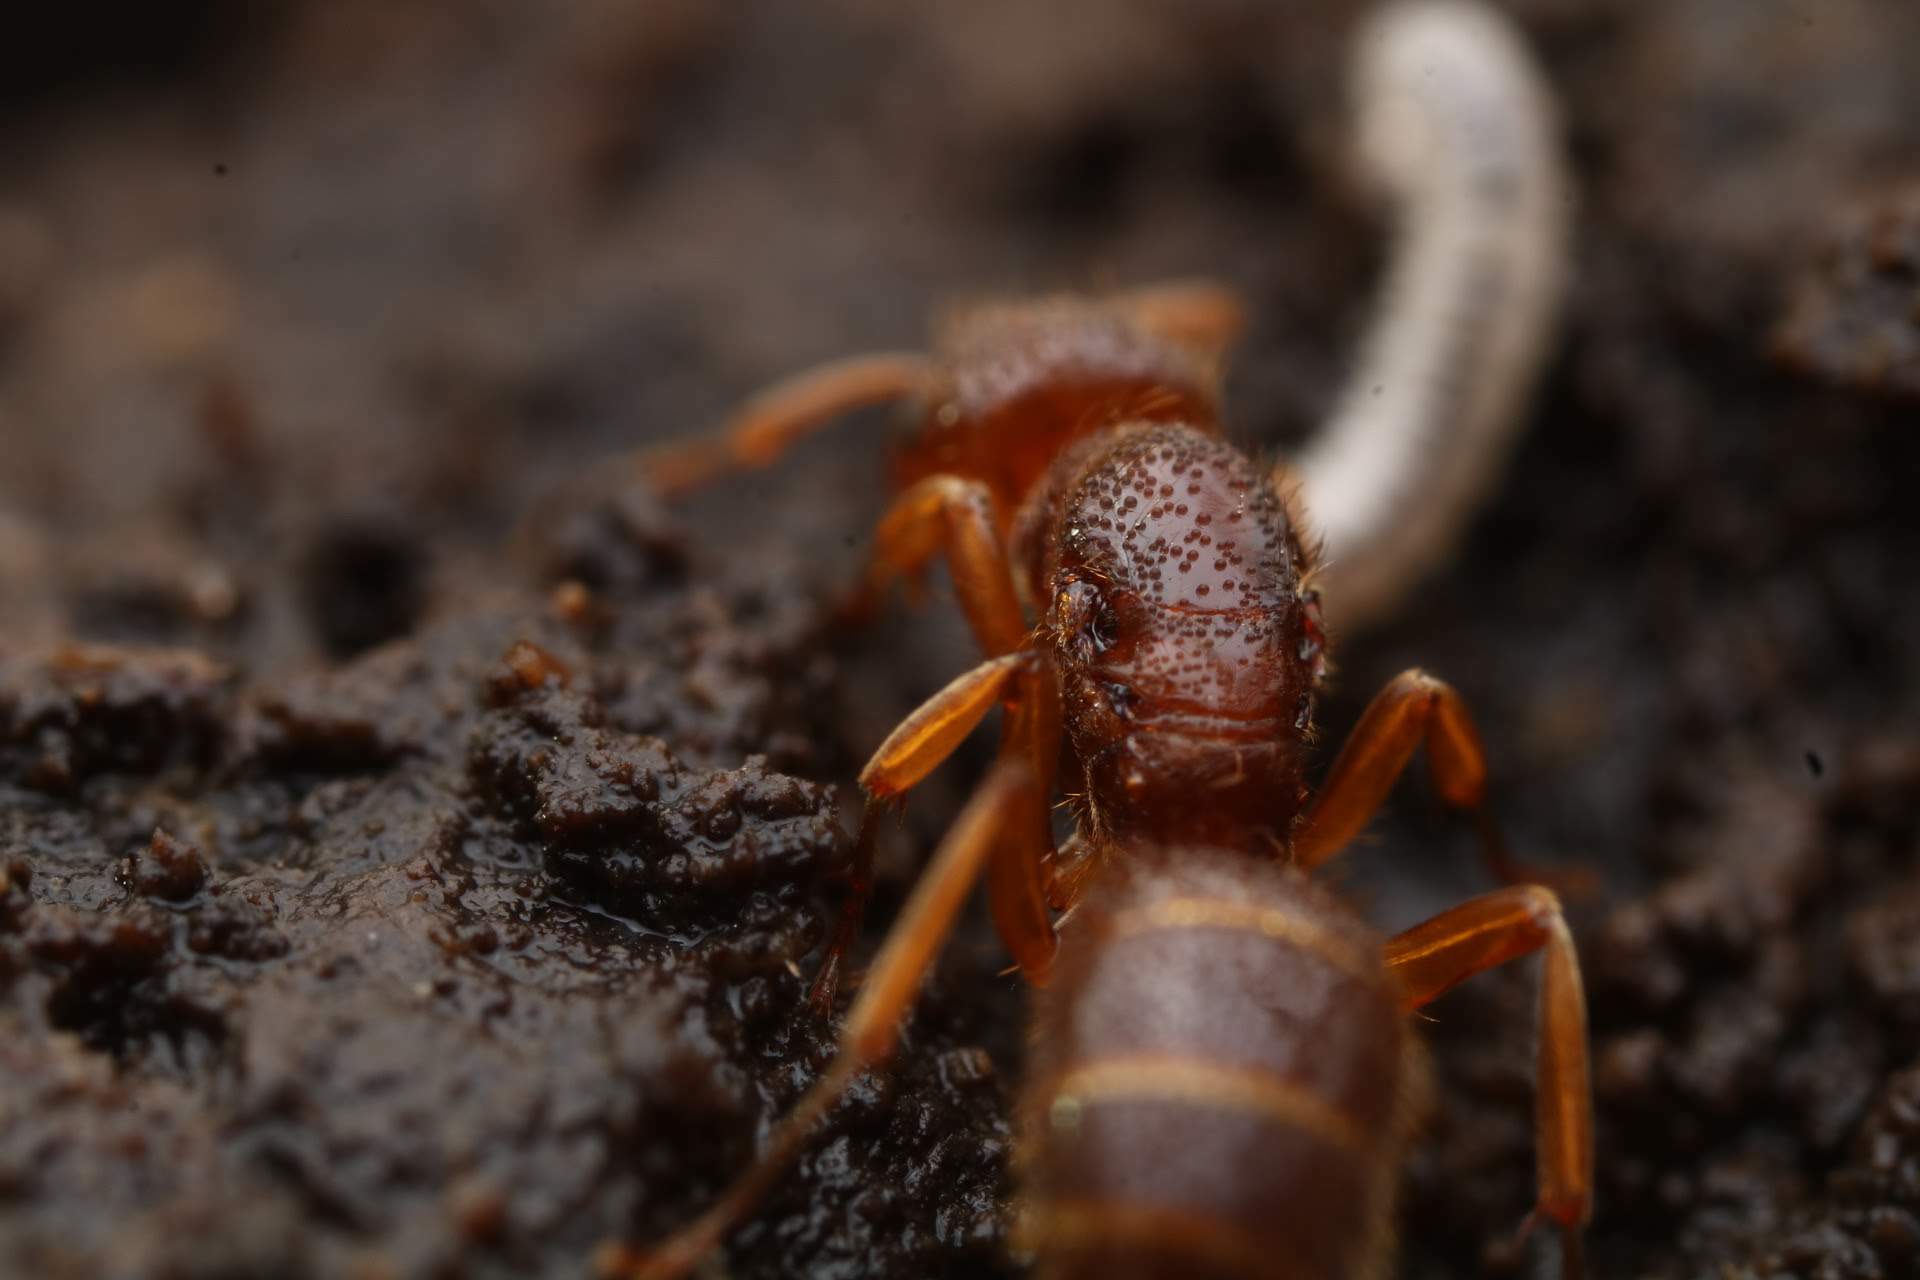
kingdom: Animalia
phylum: Arthropoda
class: Insecta
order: Hymenoptera
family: Formicidae
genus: Lasius
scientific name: Lasius claviger
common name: Common citronella ant
